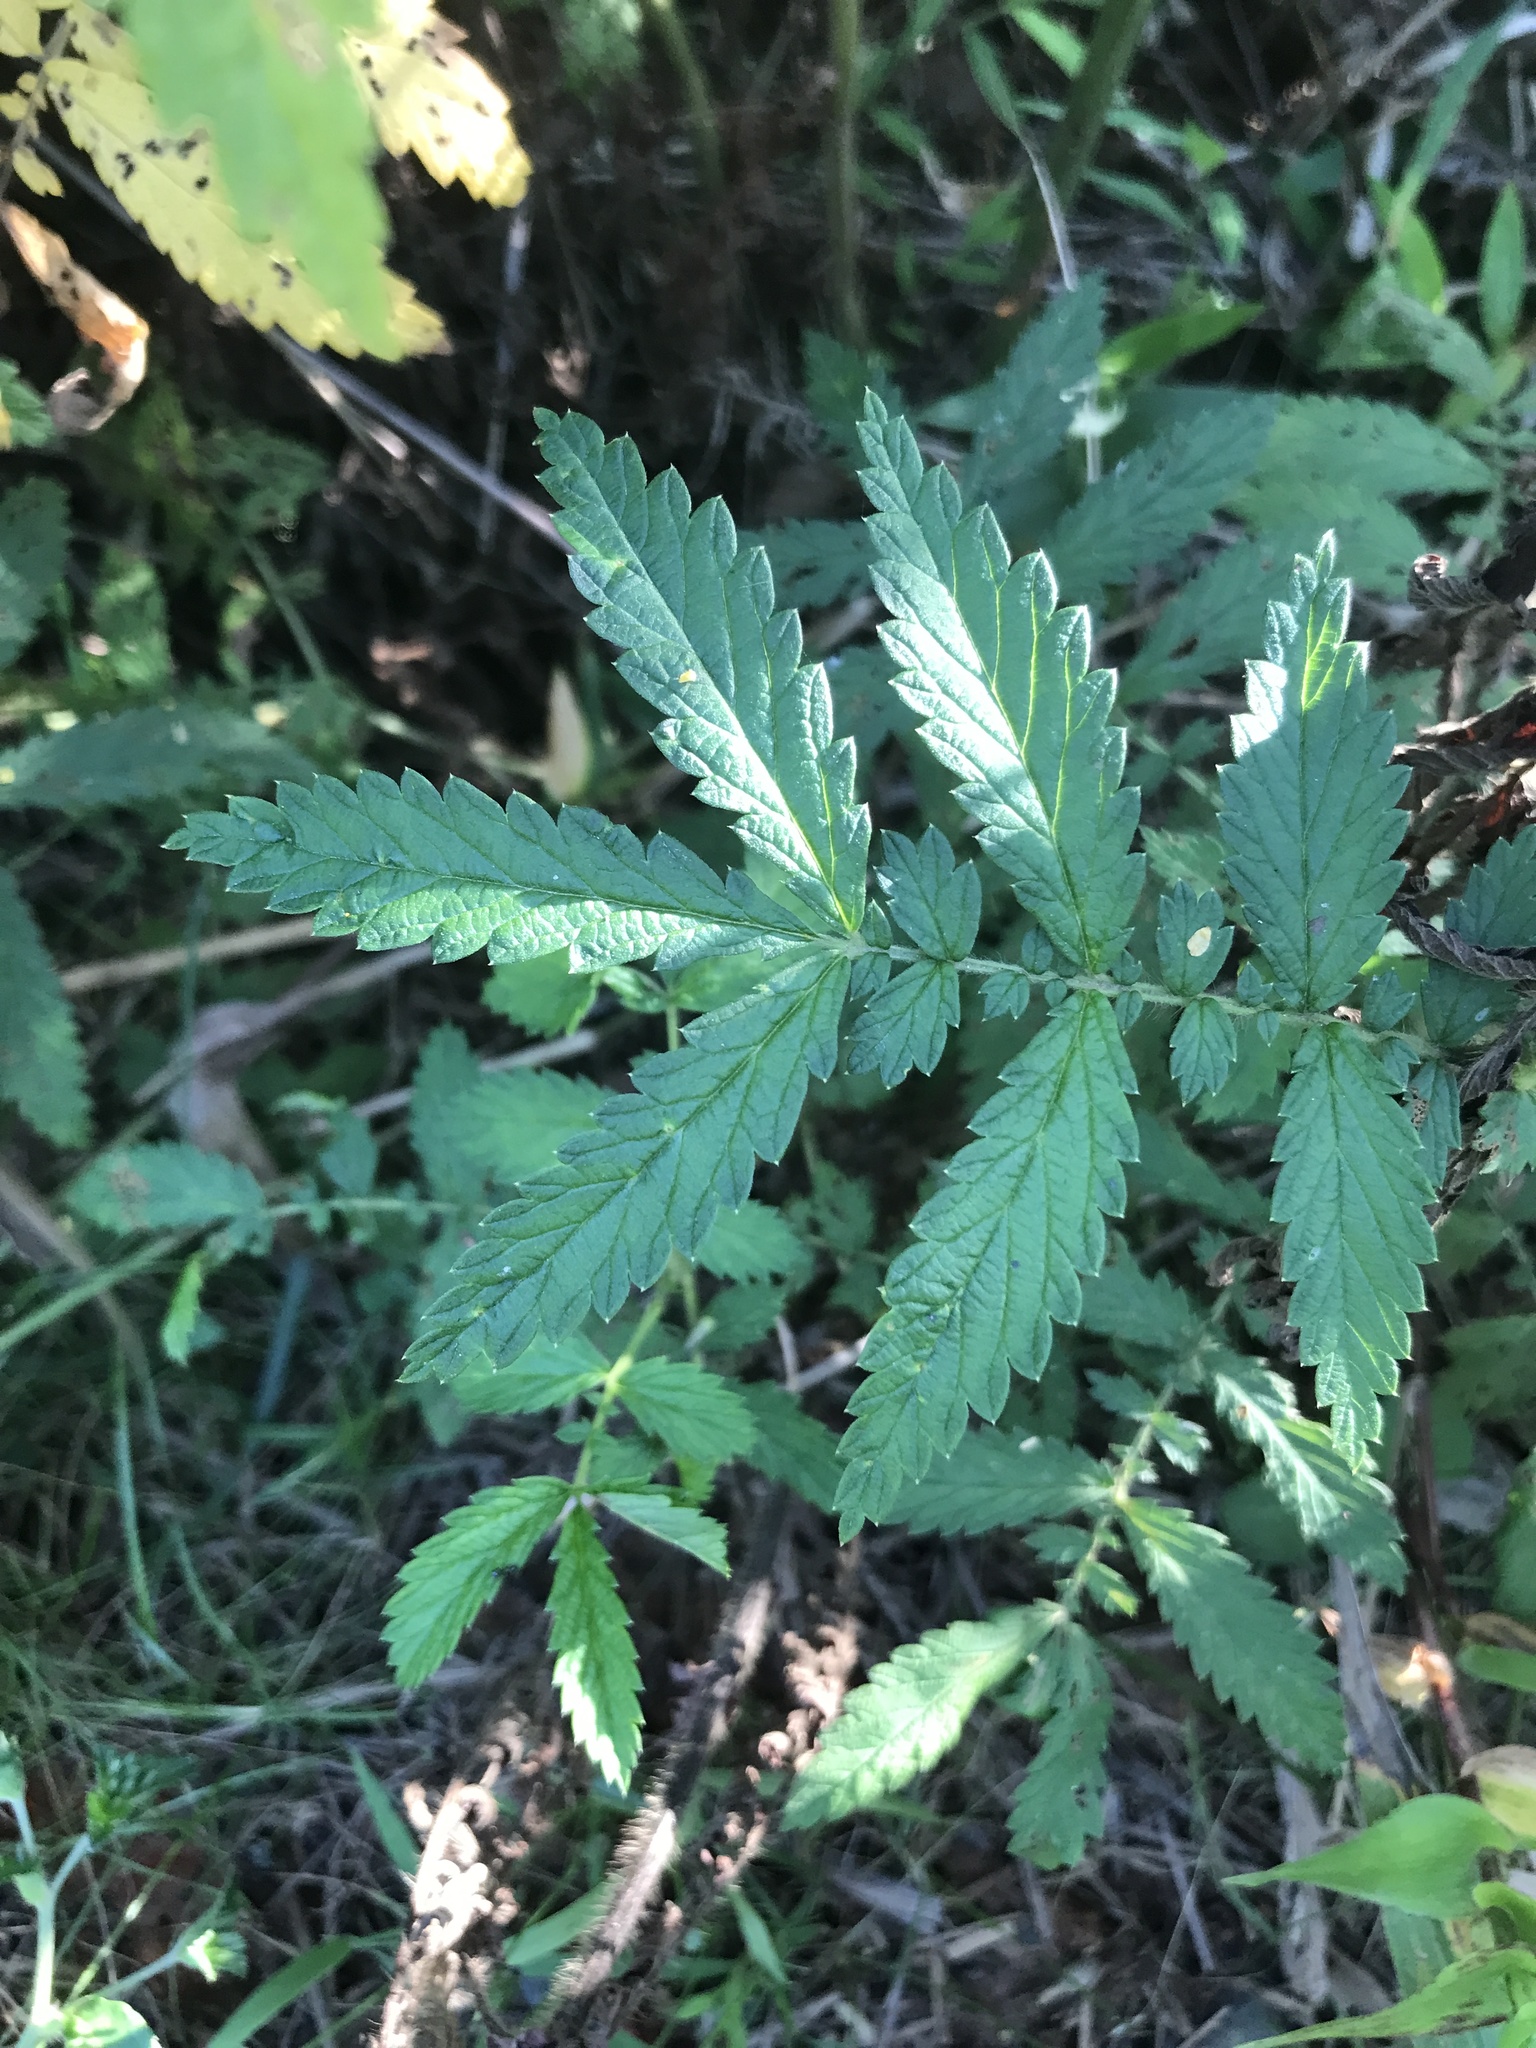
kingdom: Plantae
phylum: Tracheophyta
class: Magnoliopsida
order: Rosales
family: Rosaceae
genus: Agrimonia
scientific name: Agrimonia parviflora
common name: Harvest-lice
